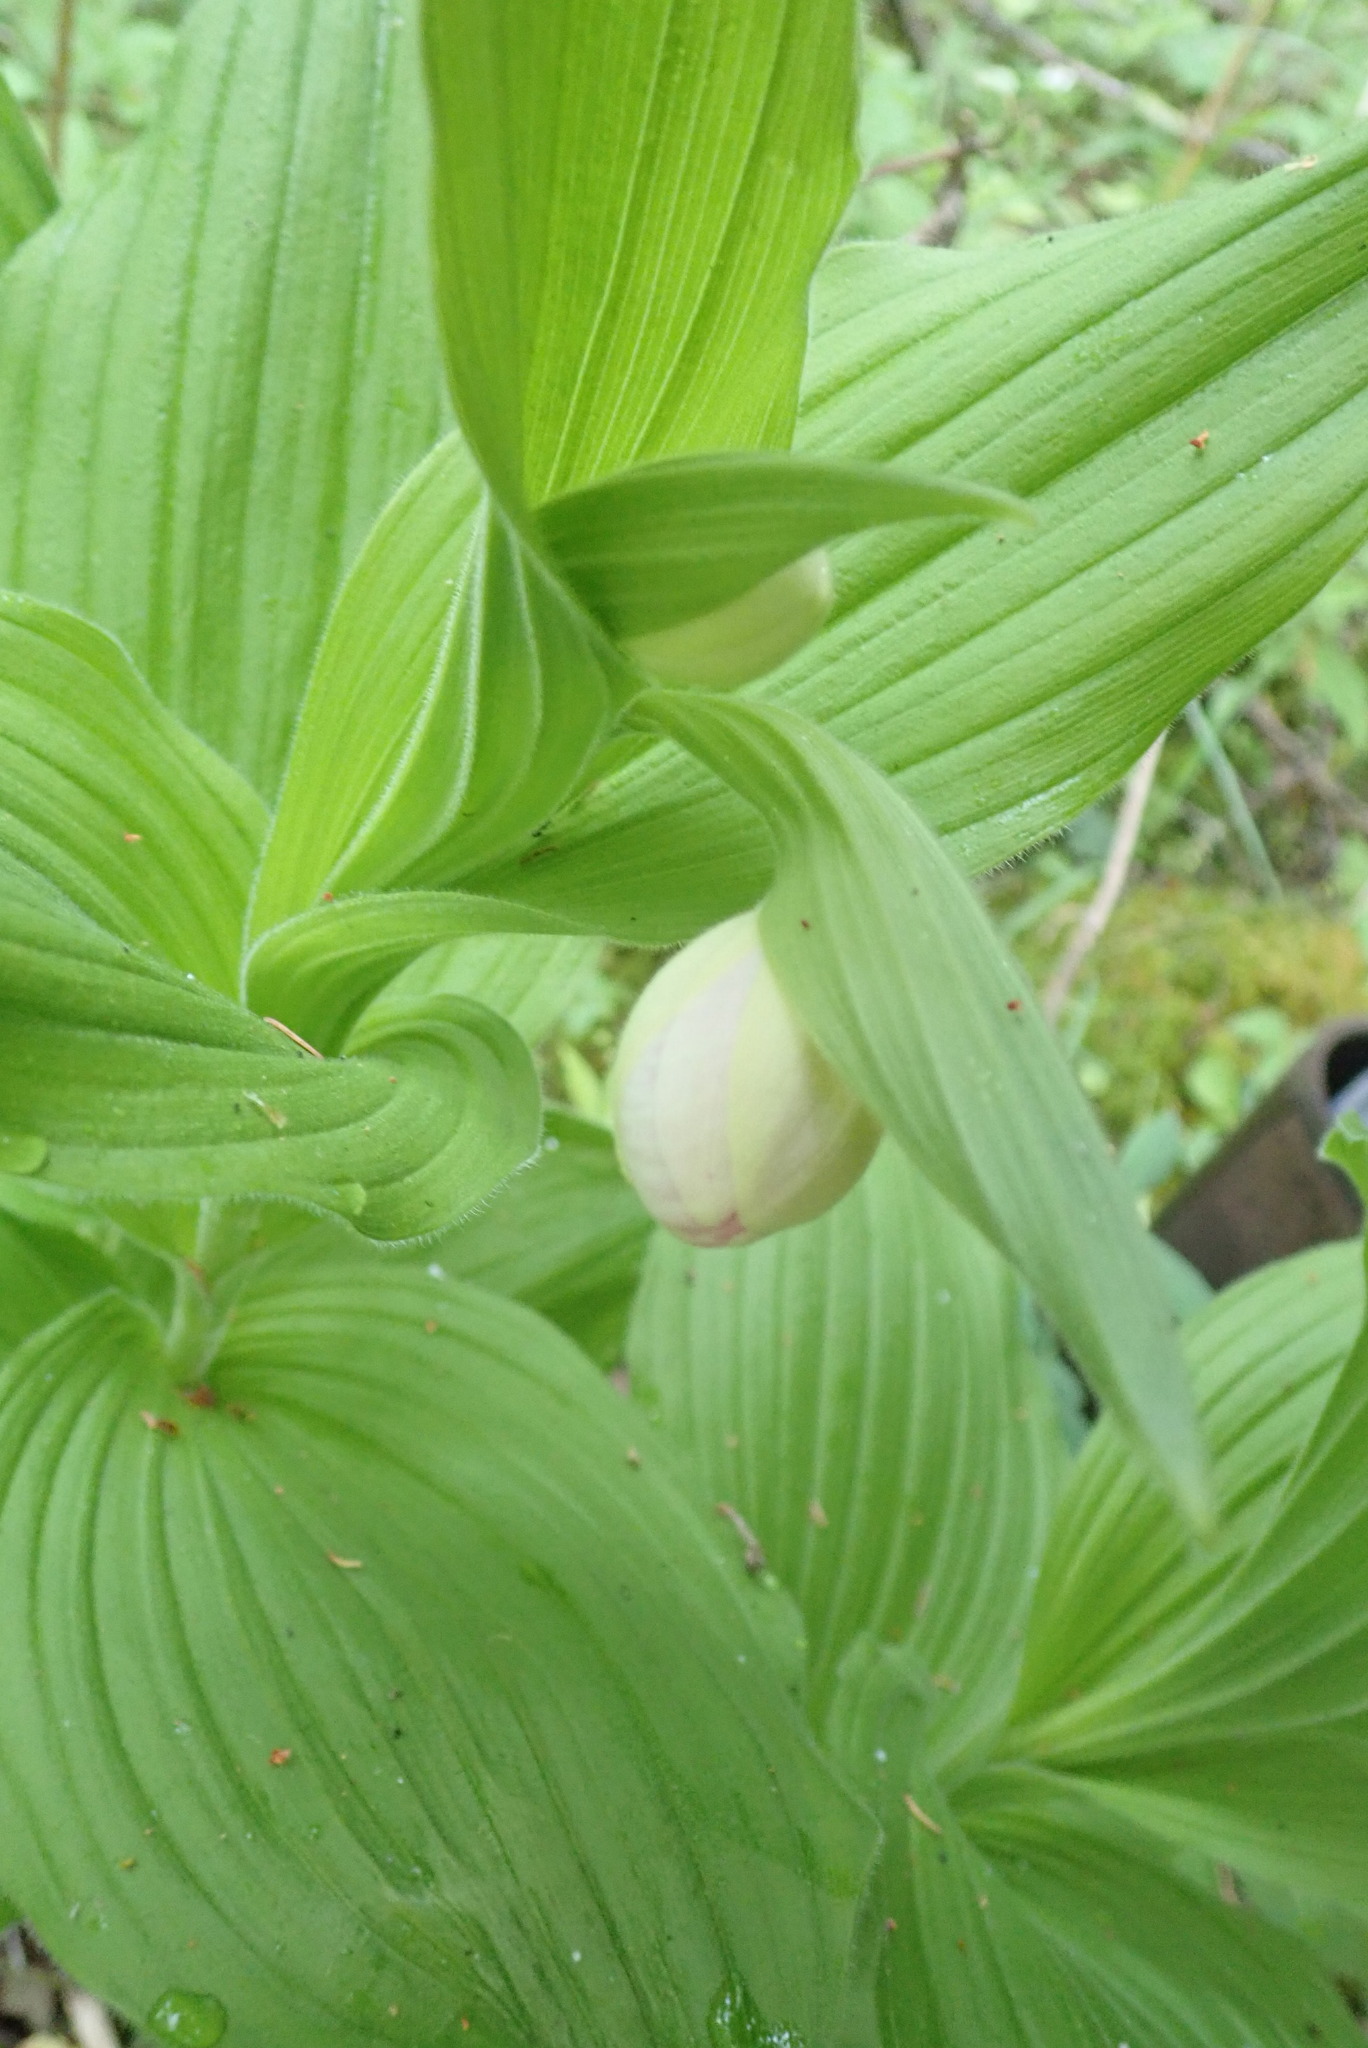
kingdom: Plantae
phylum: Tracheophyta
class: Liliopsida
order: Asparagales
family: Orchidaceae
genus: Cypripedium
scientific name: Cypripedium reginae
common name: Queen lady's-slipper
